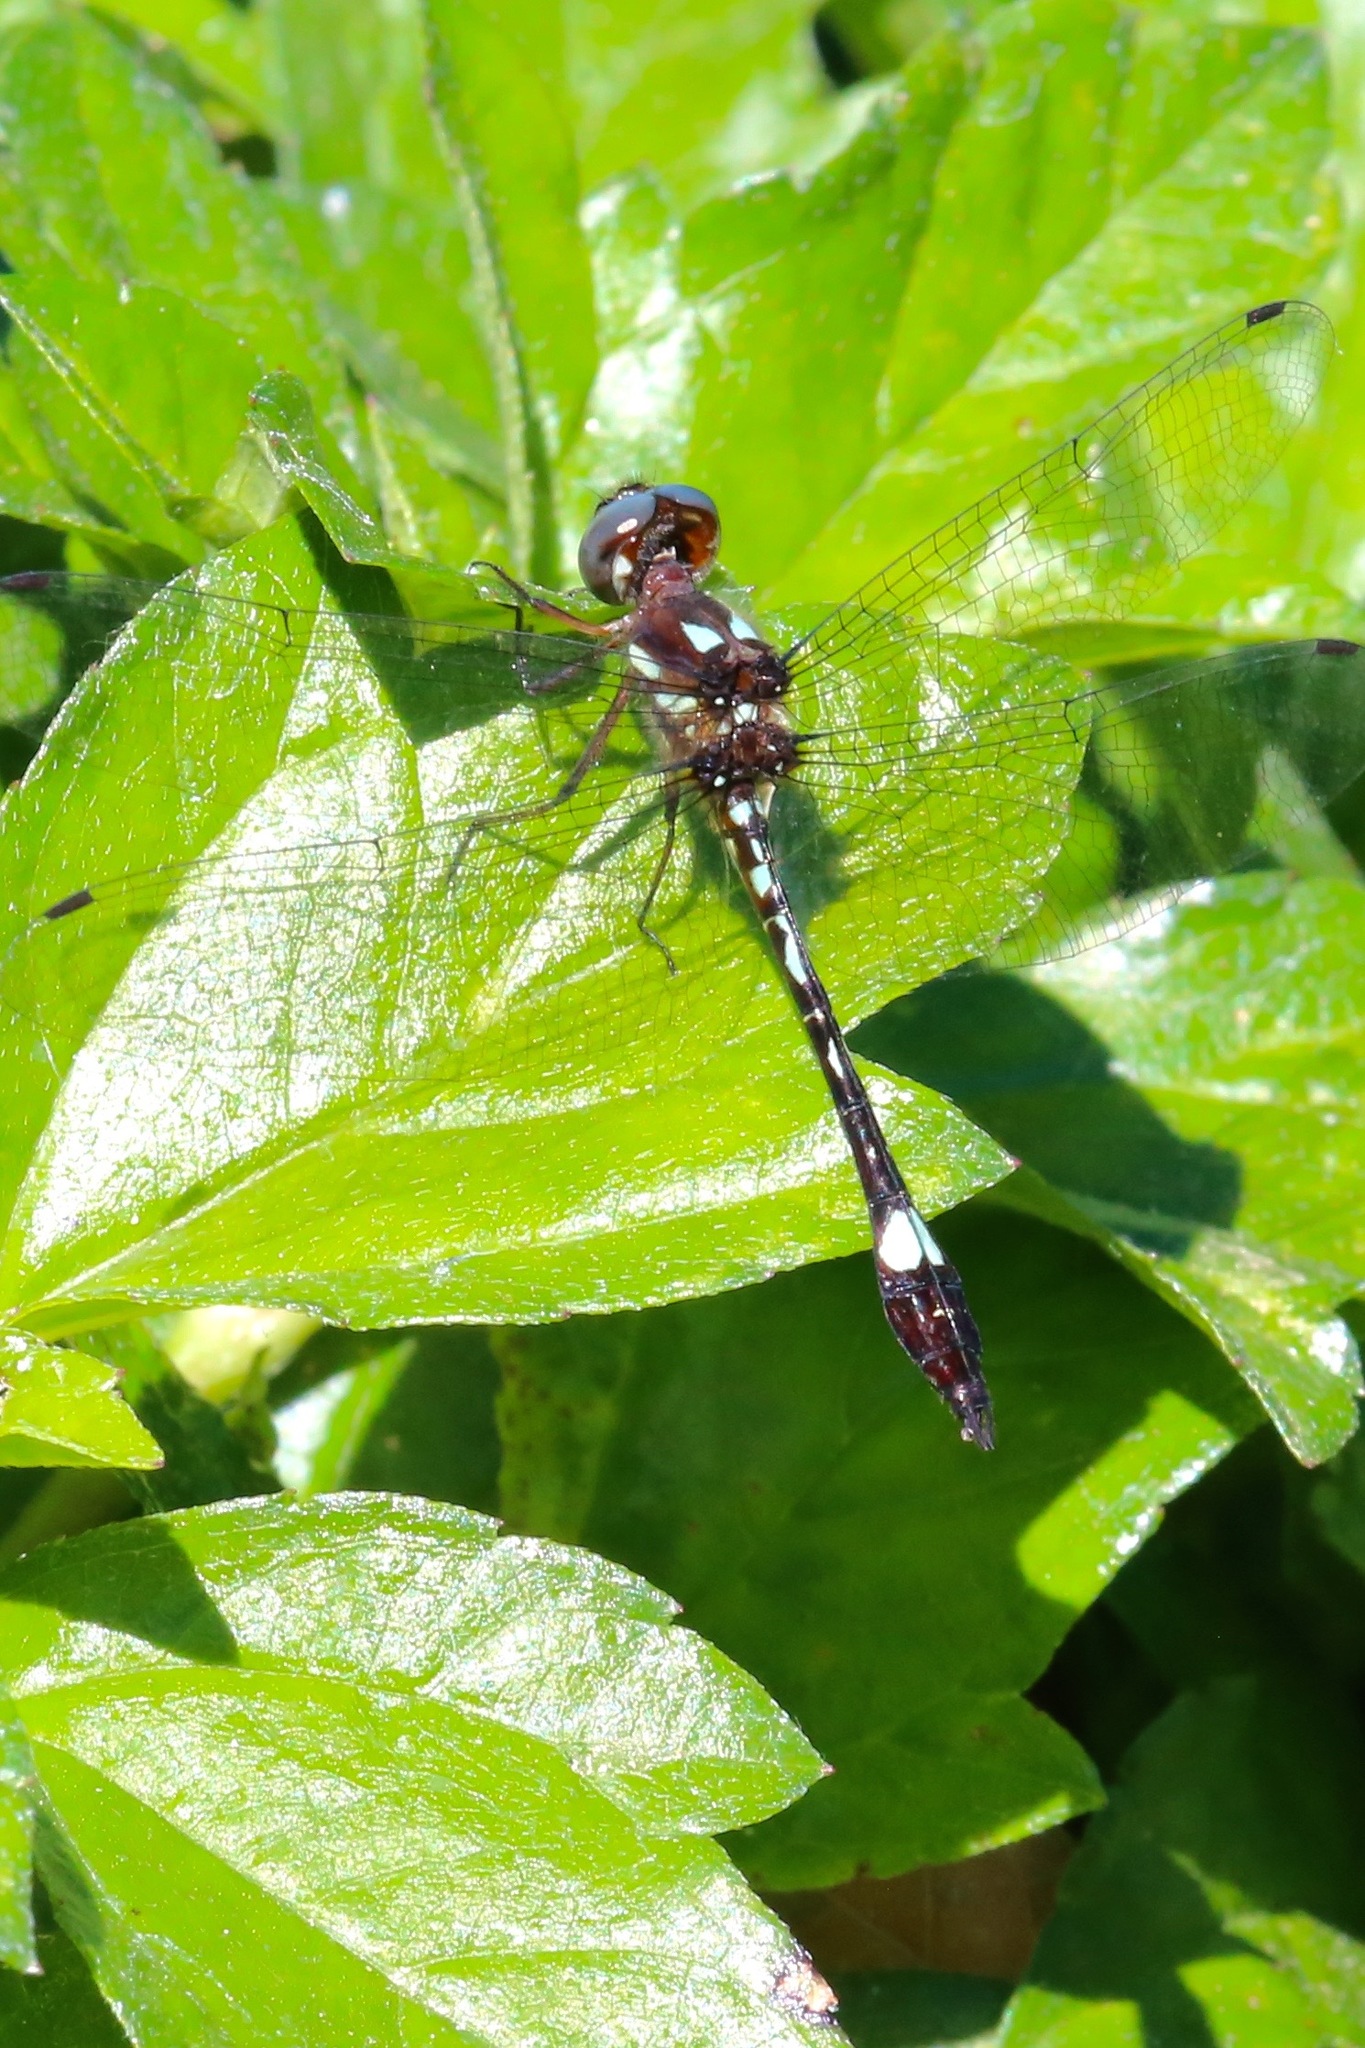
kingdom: Animalia
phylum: Arthropoda
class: Insecta
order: Odonata
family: Libellulidae
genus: Macrothemis
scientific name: Macrothemis pseudimitans
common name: White-tailed sylph
